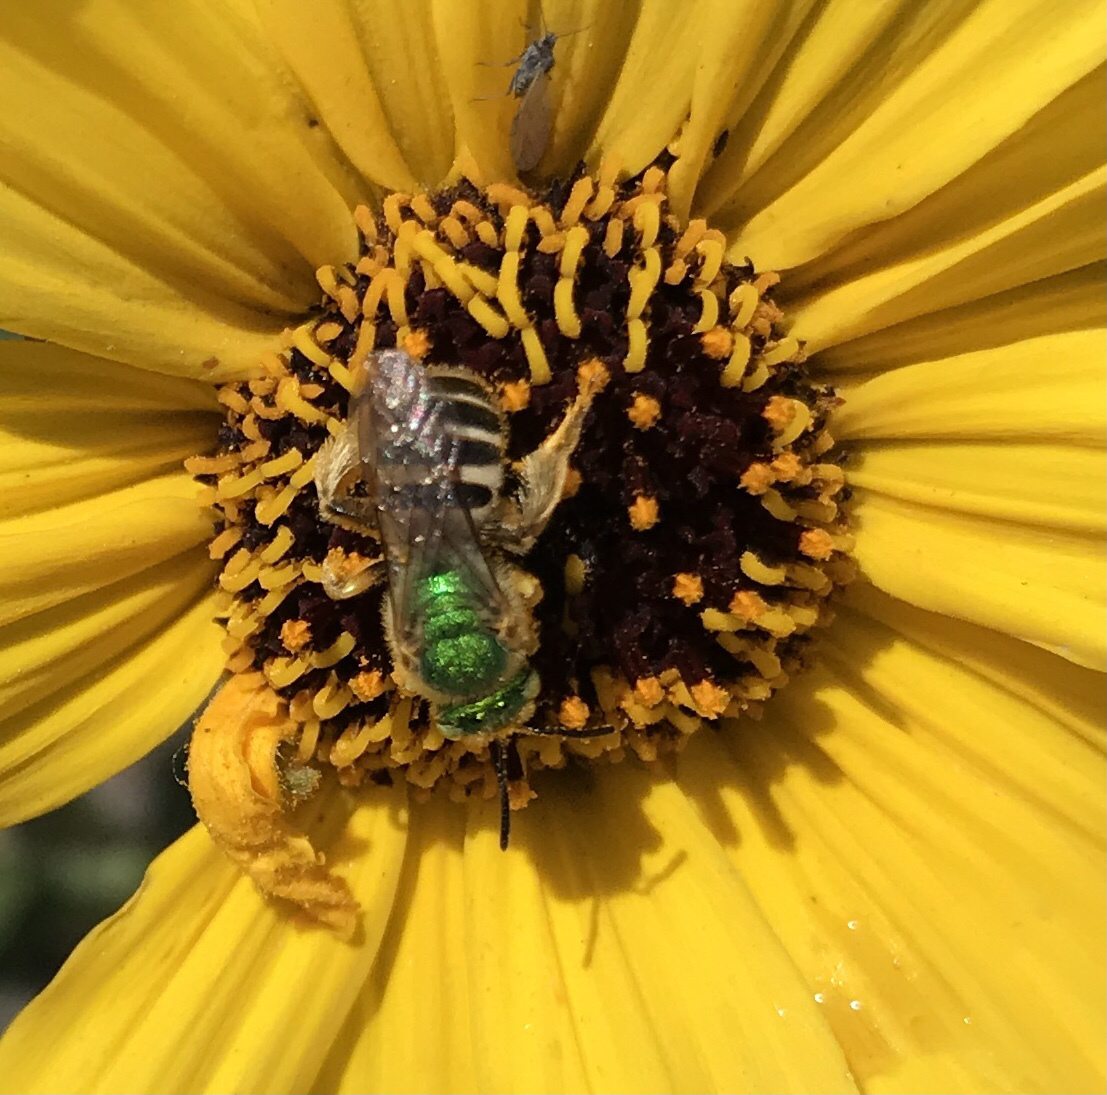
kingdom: Animalia
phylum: Arthropoda
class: Insecta
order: Hymenoptera
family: Halictidae
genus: Agapostemon
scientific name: Agapostemon melliventris
